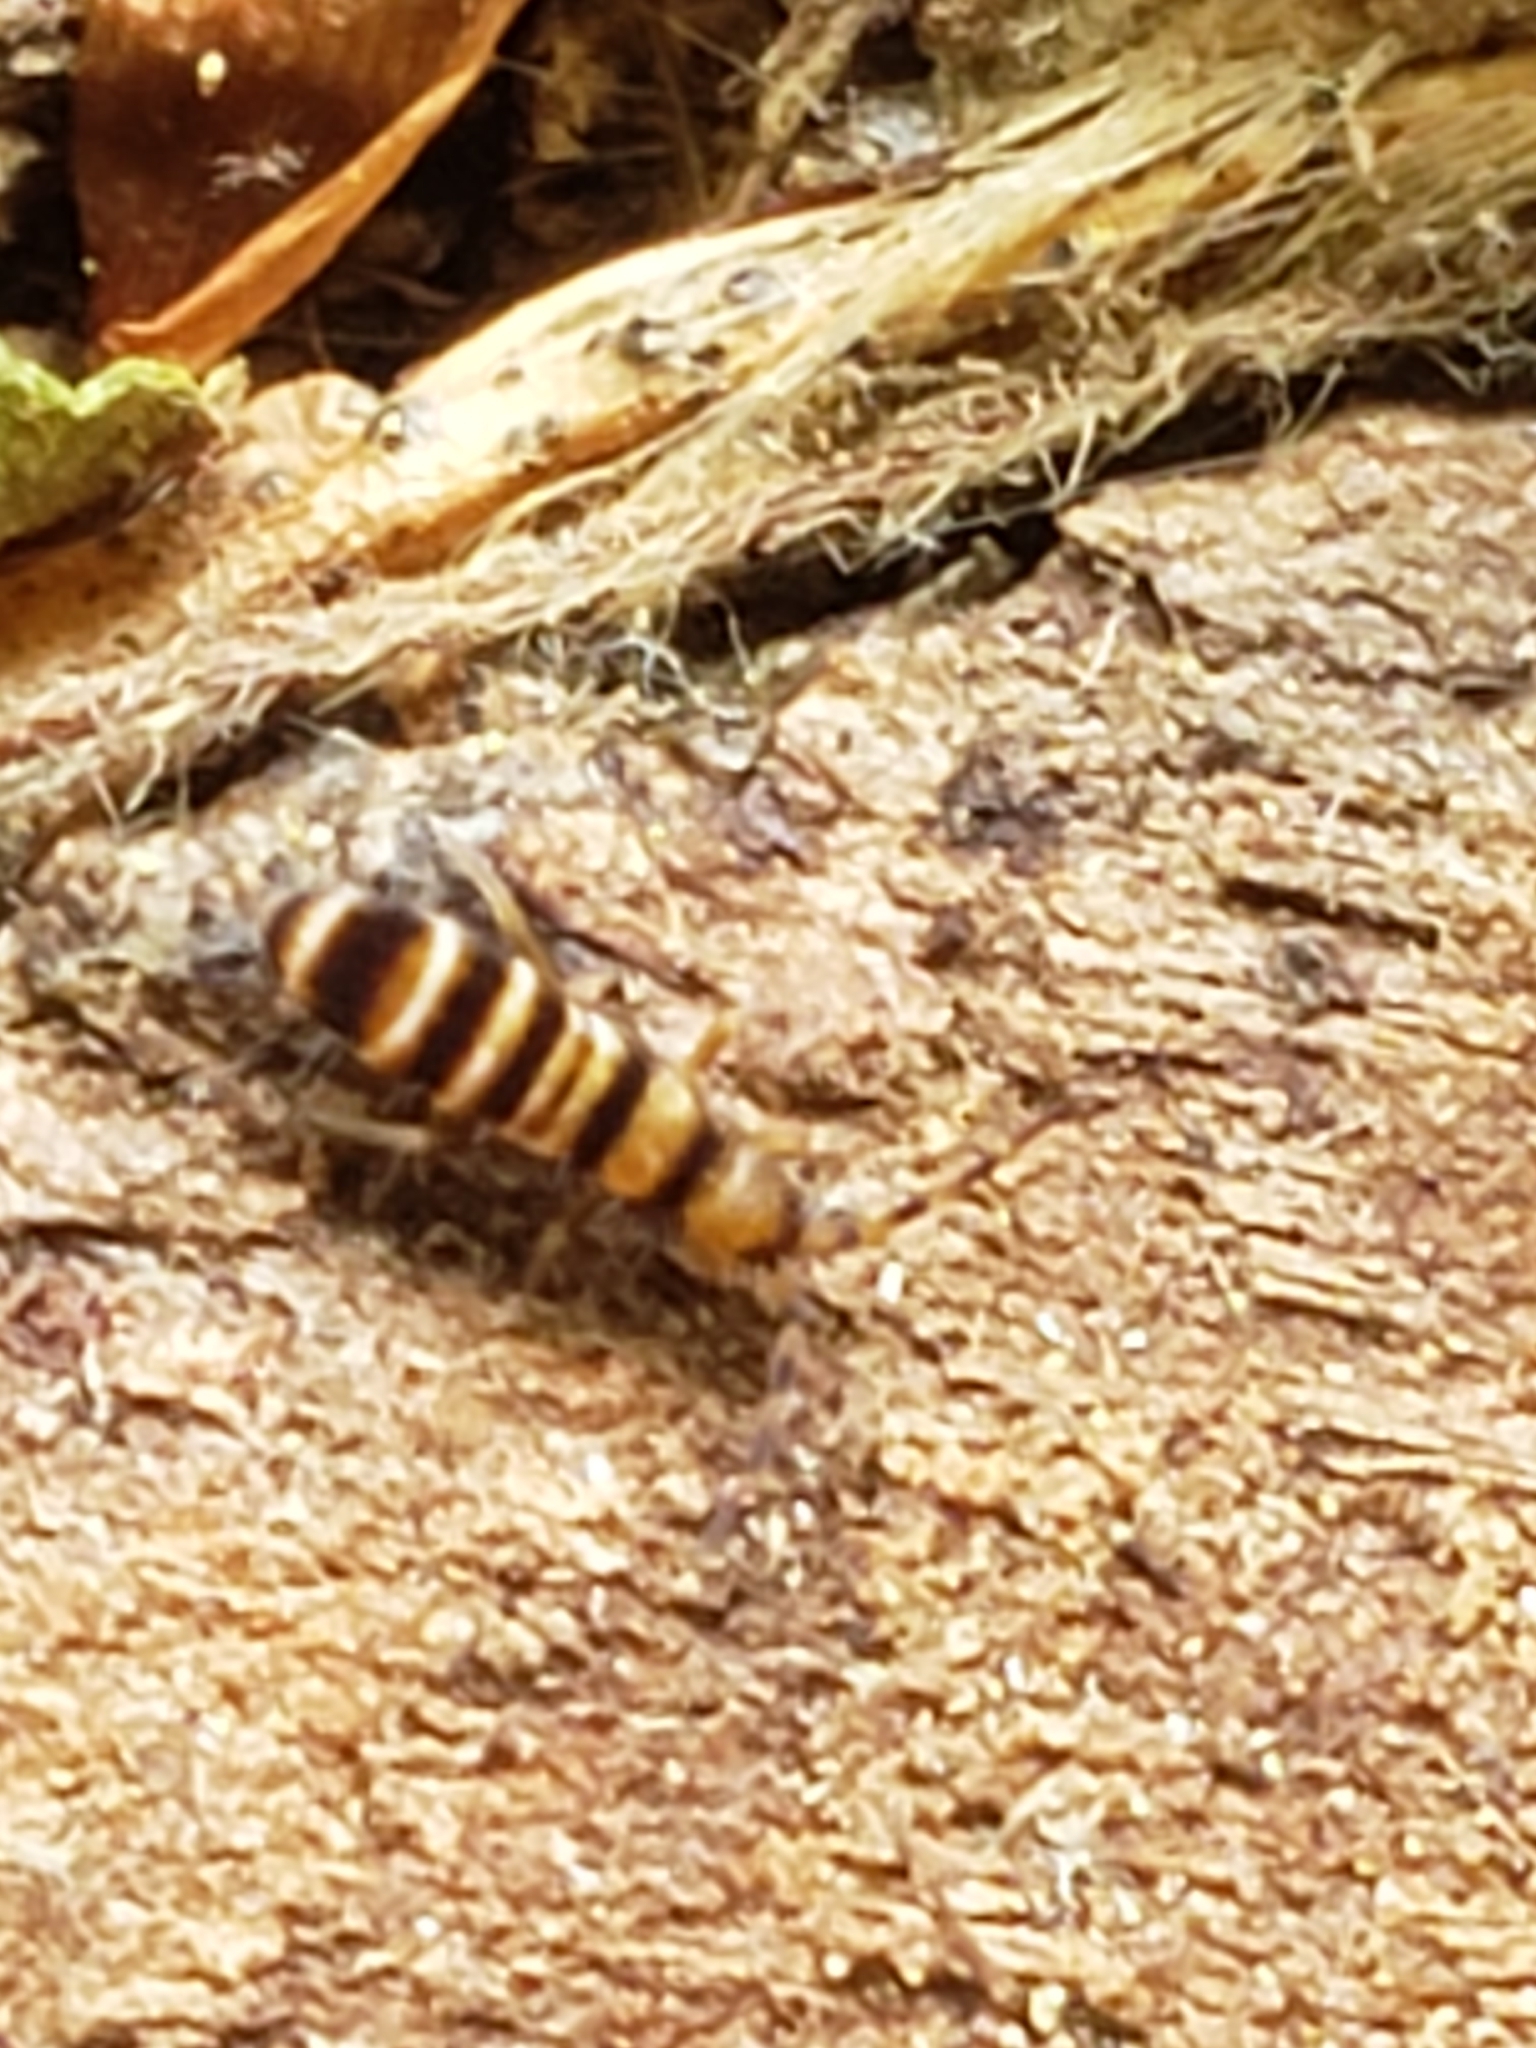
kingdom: Animalia
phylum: Arthropoda
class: Collembola
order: Entomobryomorpha
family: Orchesellidae
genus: Orchesella
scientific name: Orchesella hexfasciata
